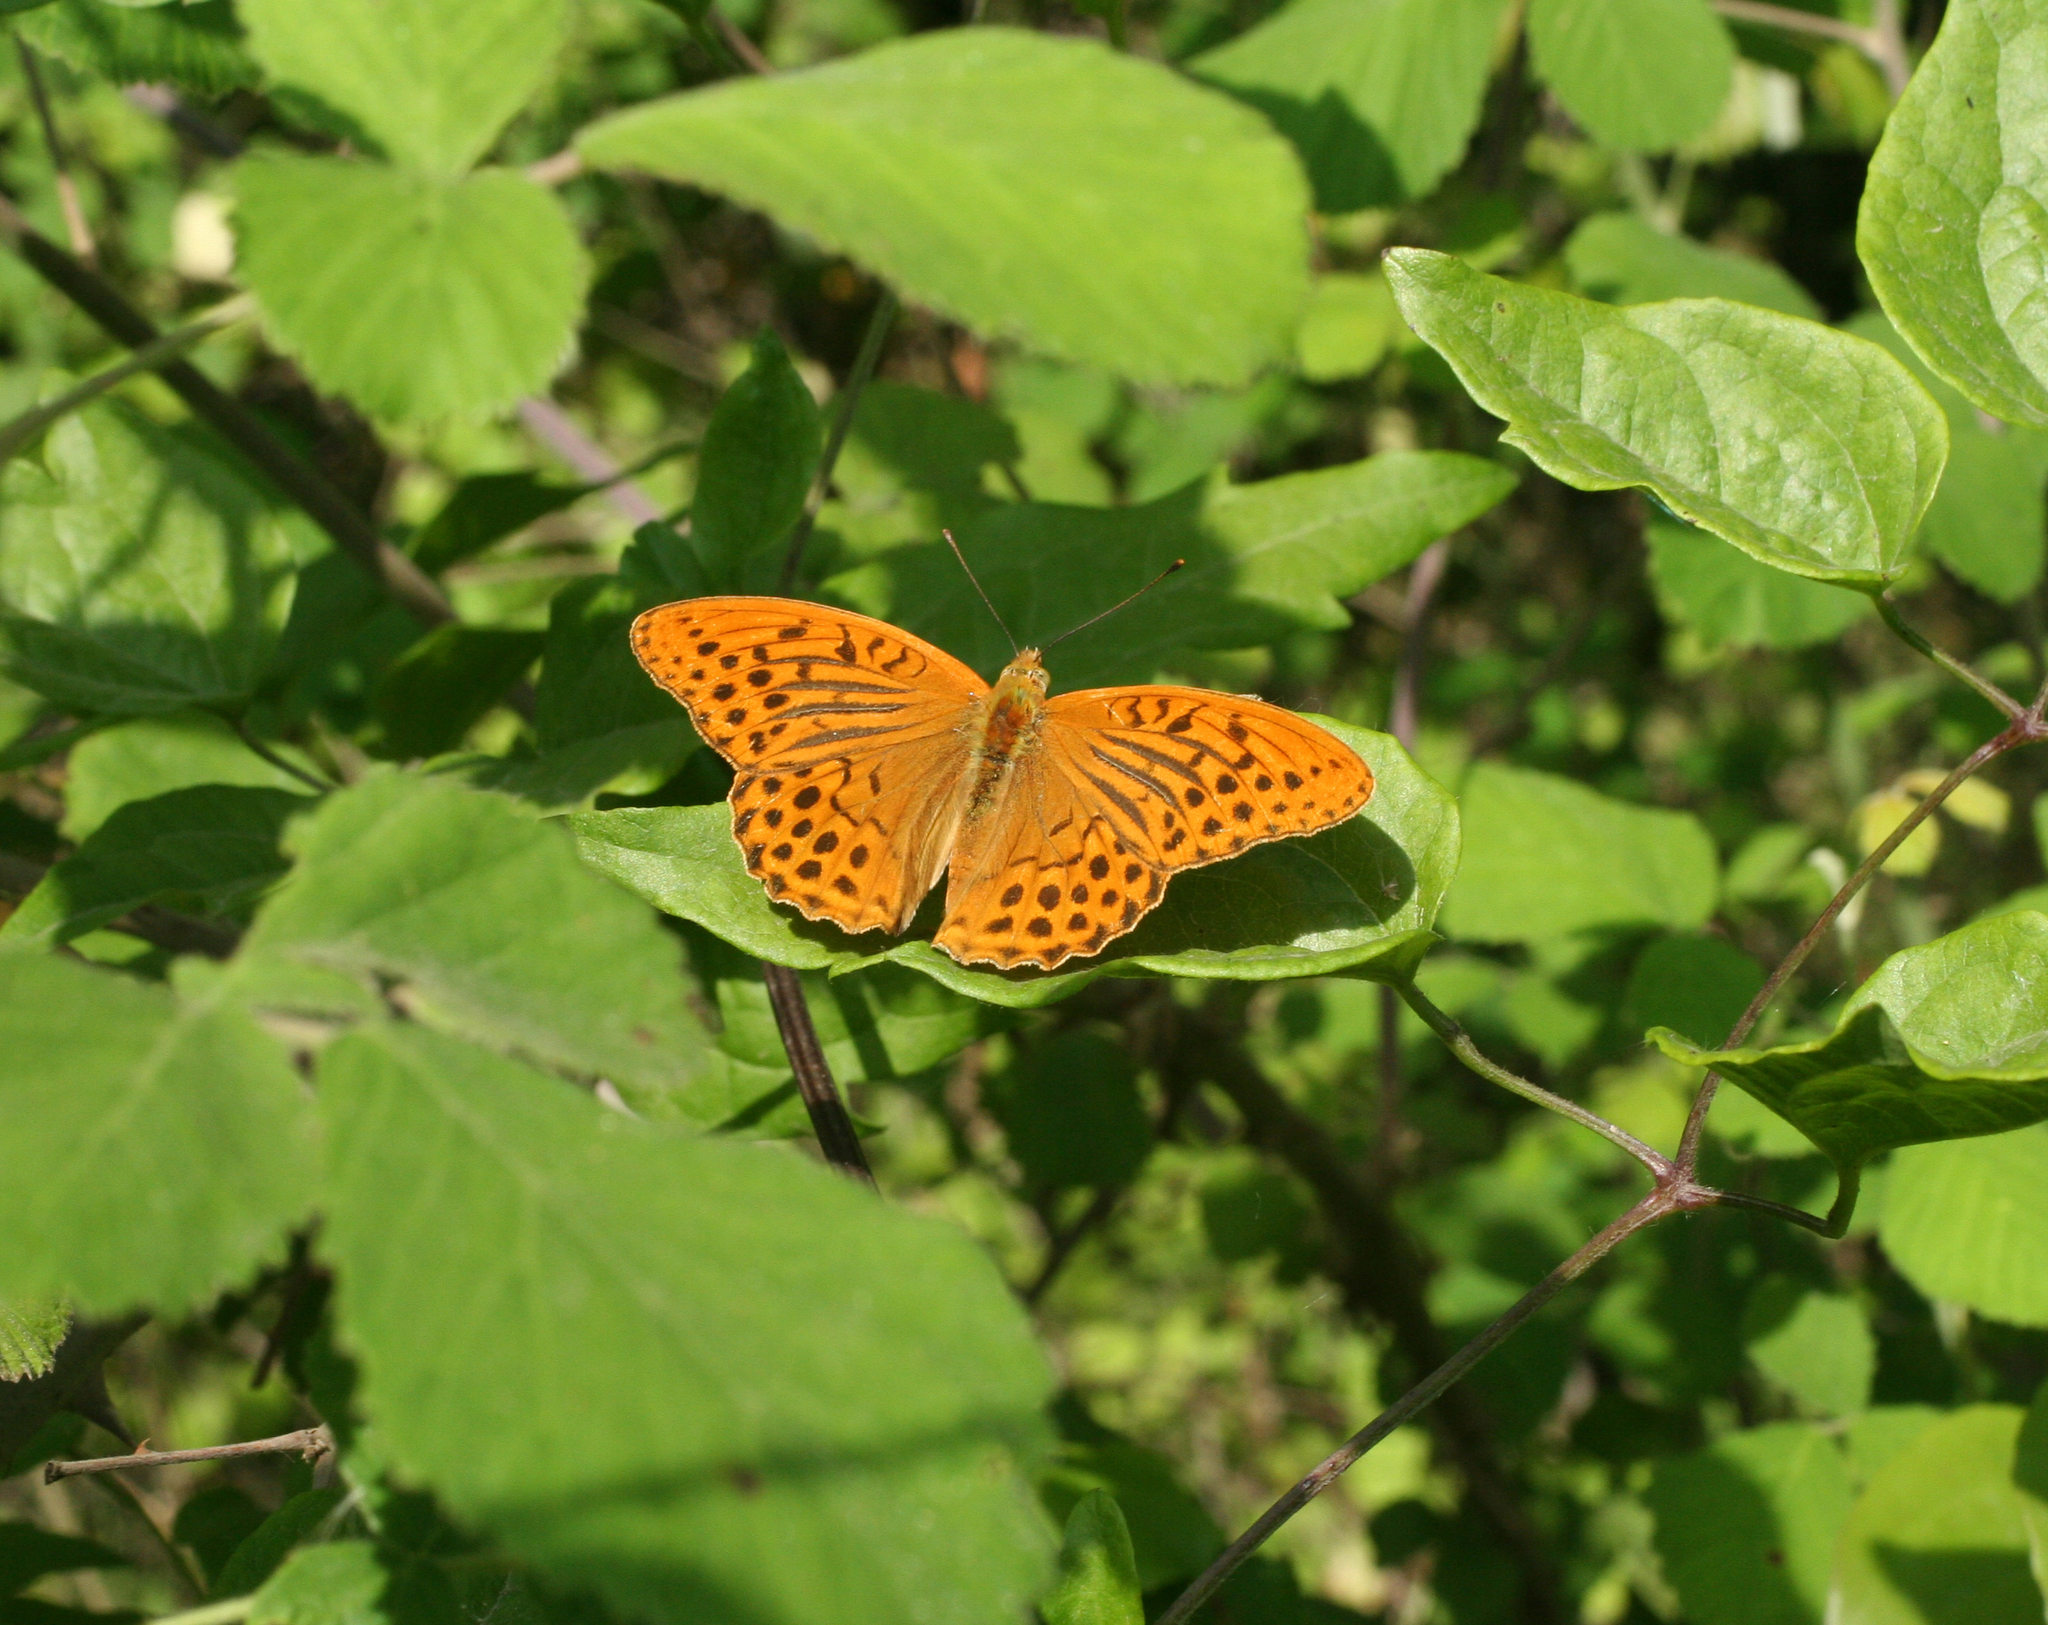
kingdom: Animalia
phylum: Arthropoda
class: Insecta
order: Lepidoptera
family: Nymphalidae
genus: Argynnis
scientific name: Argynnis paphia
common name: Silver-washed fritillary
